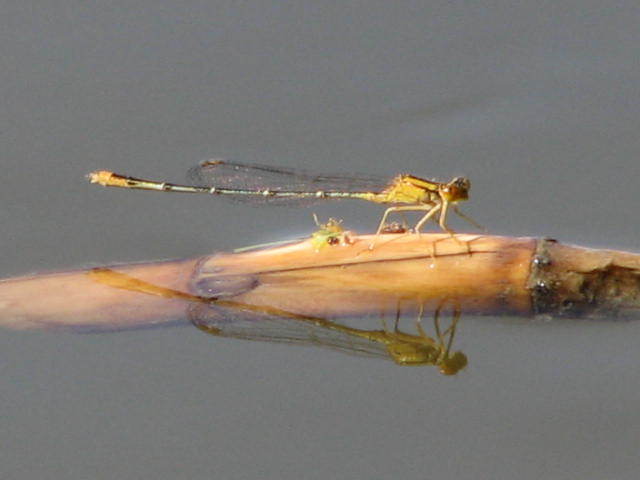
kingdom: Animalia
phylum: Arthropoda
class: Insecta
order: Odonata
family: Coenagrionidae
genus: Enallagma
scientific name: Enallagma signatum
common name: Orange bluet
